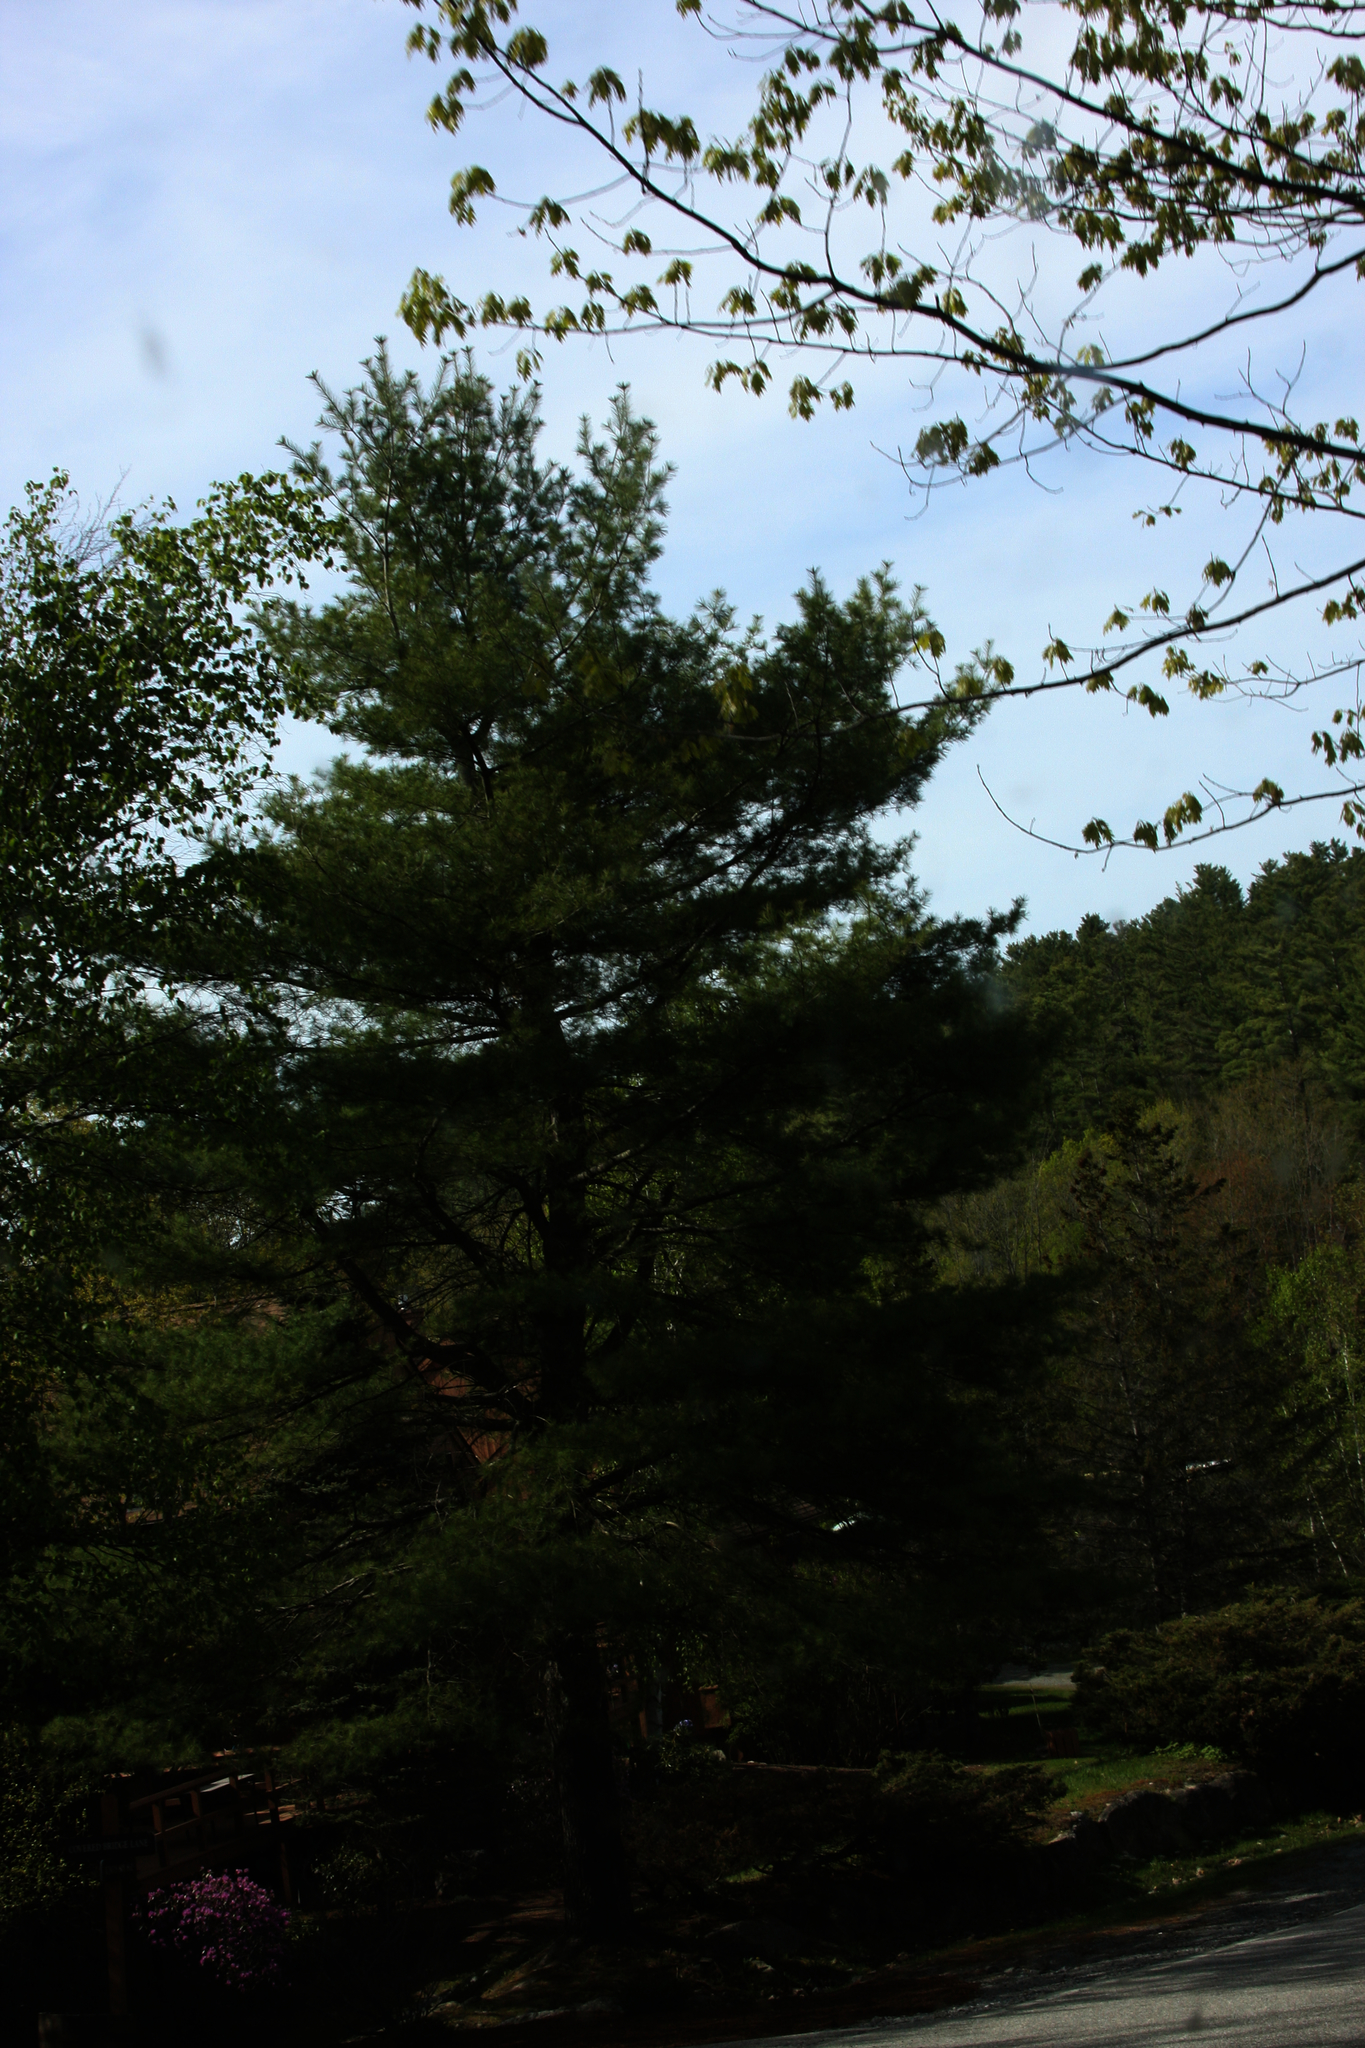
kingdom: Plantae
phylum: Tracheophyta
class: Pinopsida
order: Pinales
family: Pinaceae
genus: Pinus
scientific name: Pinus strobus
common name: Weymouth pine
